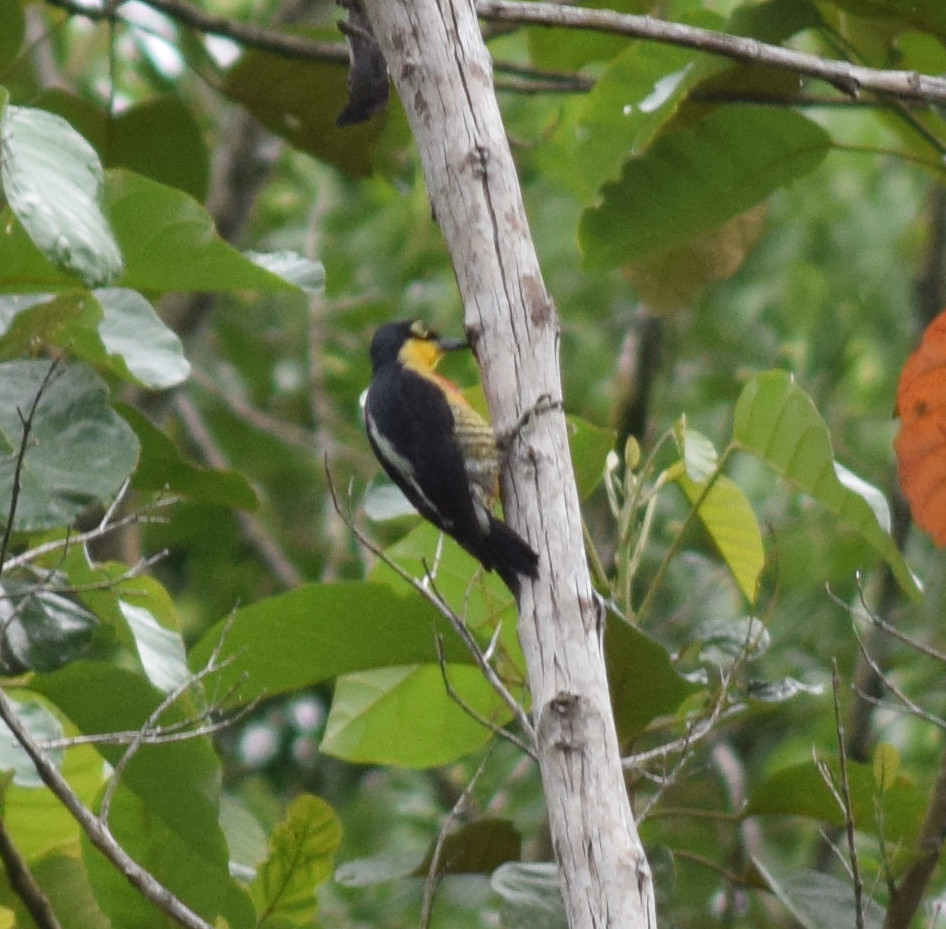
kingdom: Animalia
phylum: Chordata
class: Aves
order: Piciformes
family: Picidae
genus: Melanerpes
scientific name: Melanerpes flavifrons
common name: Yellow-fronted woodpecker
